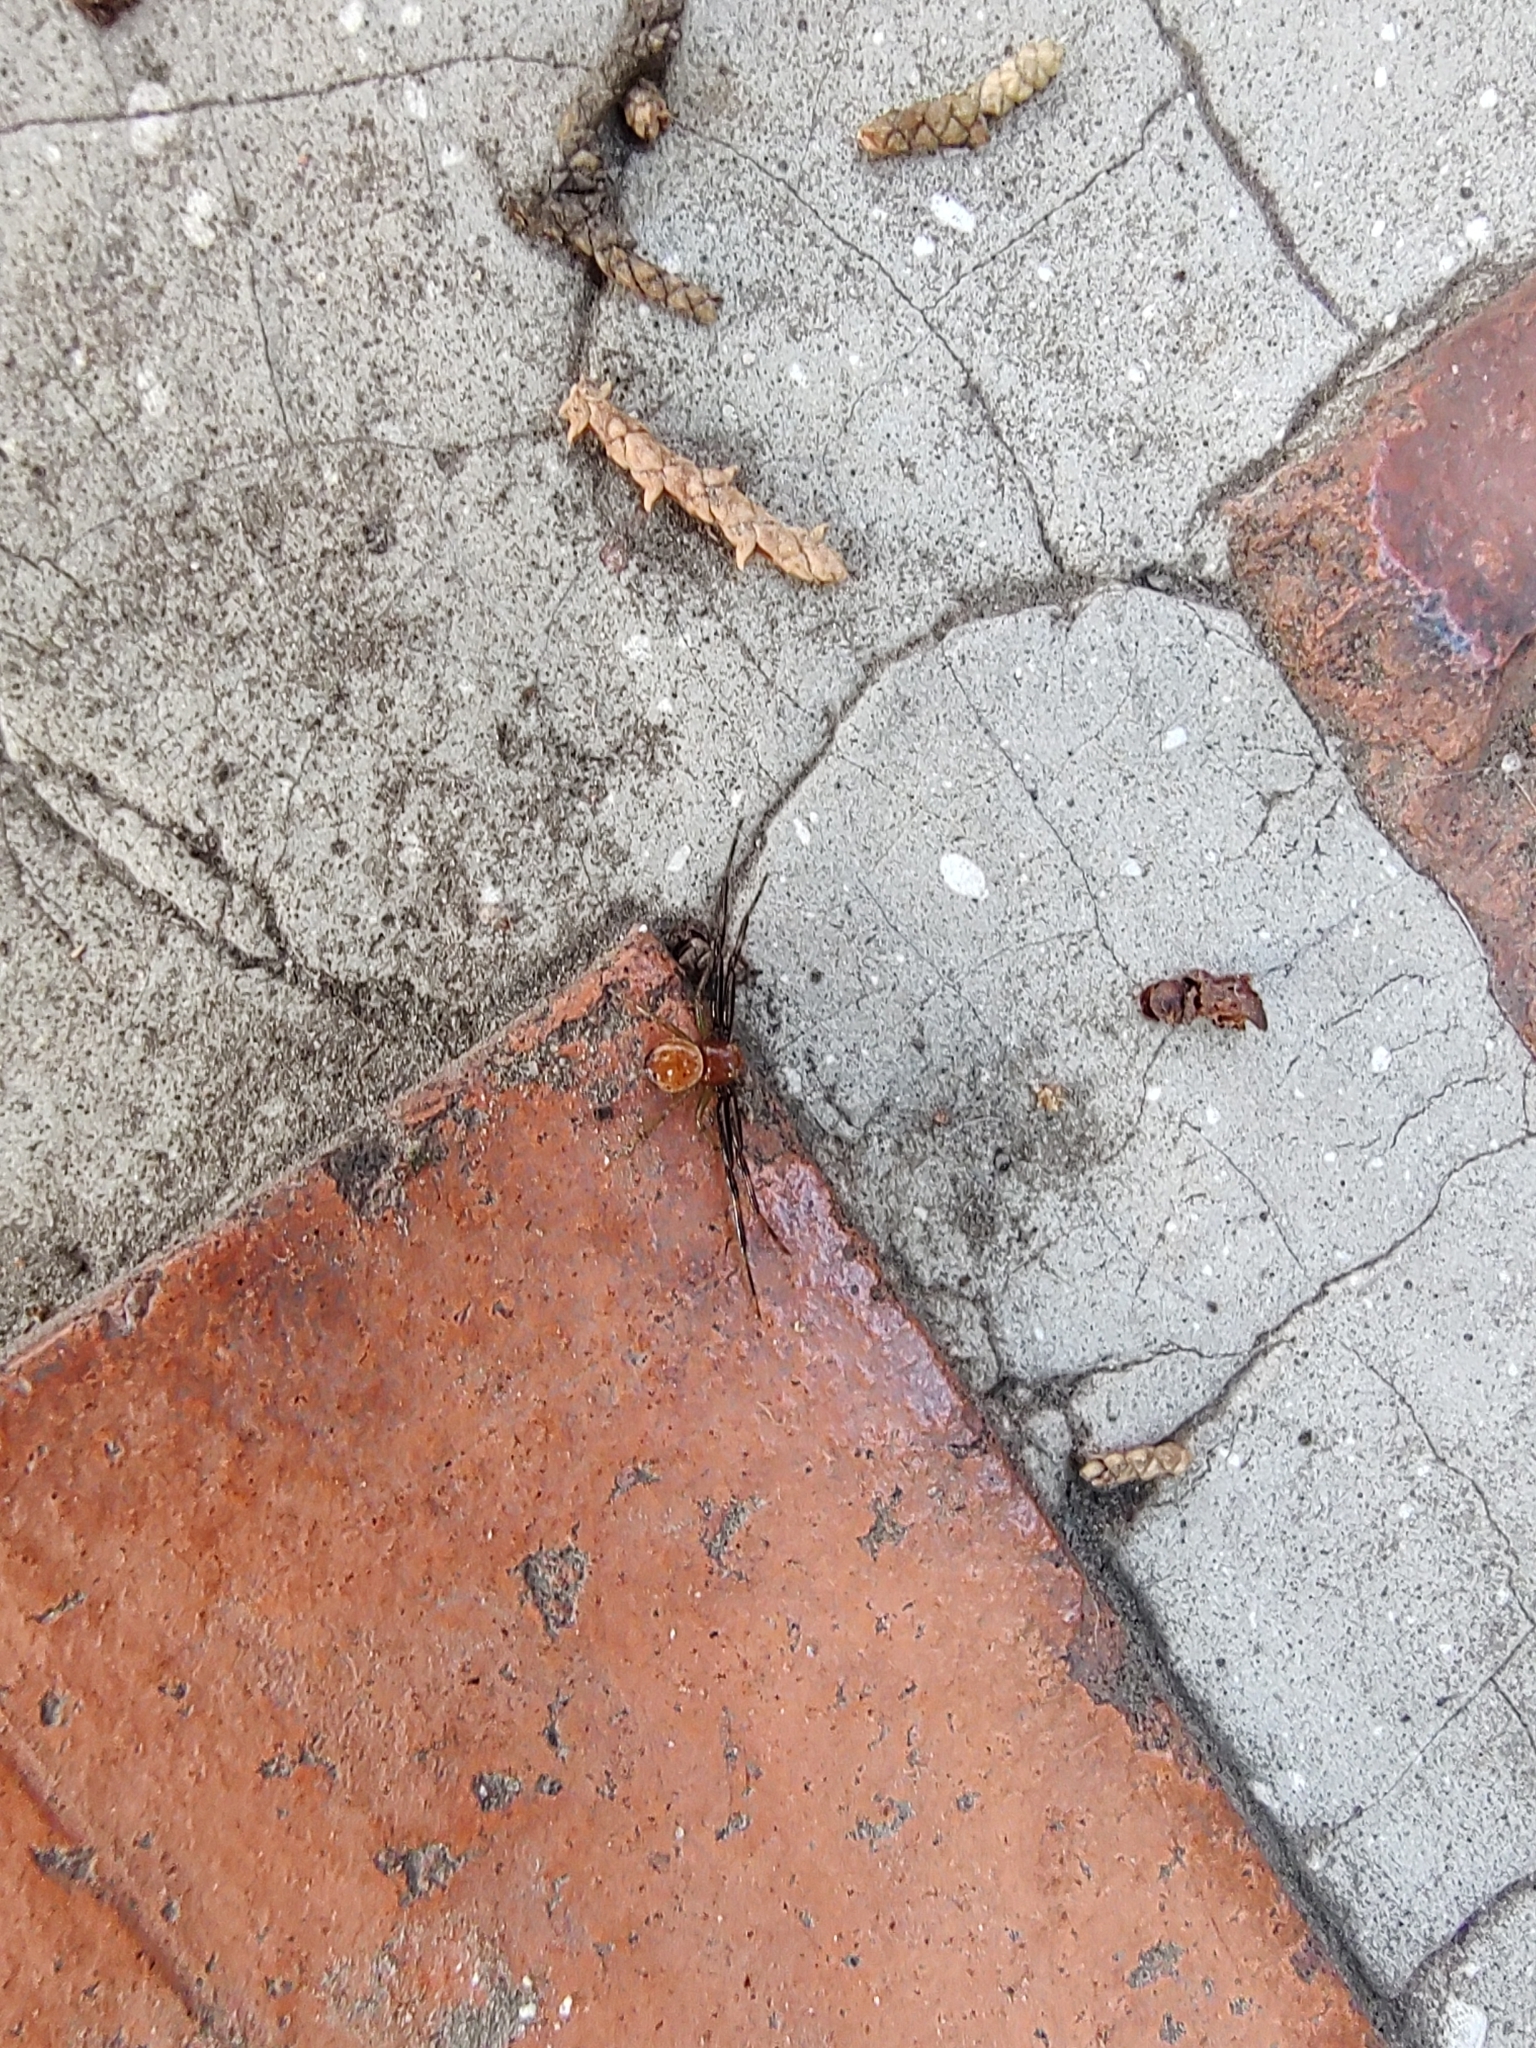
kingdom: Animalia
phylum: Arthropoda
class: Arachnida
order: Araneae
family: Thomisidae
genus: Synema
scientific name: Synema parvulum
